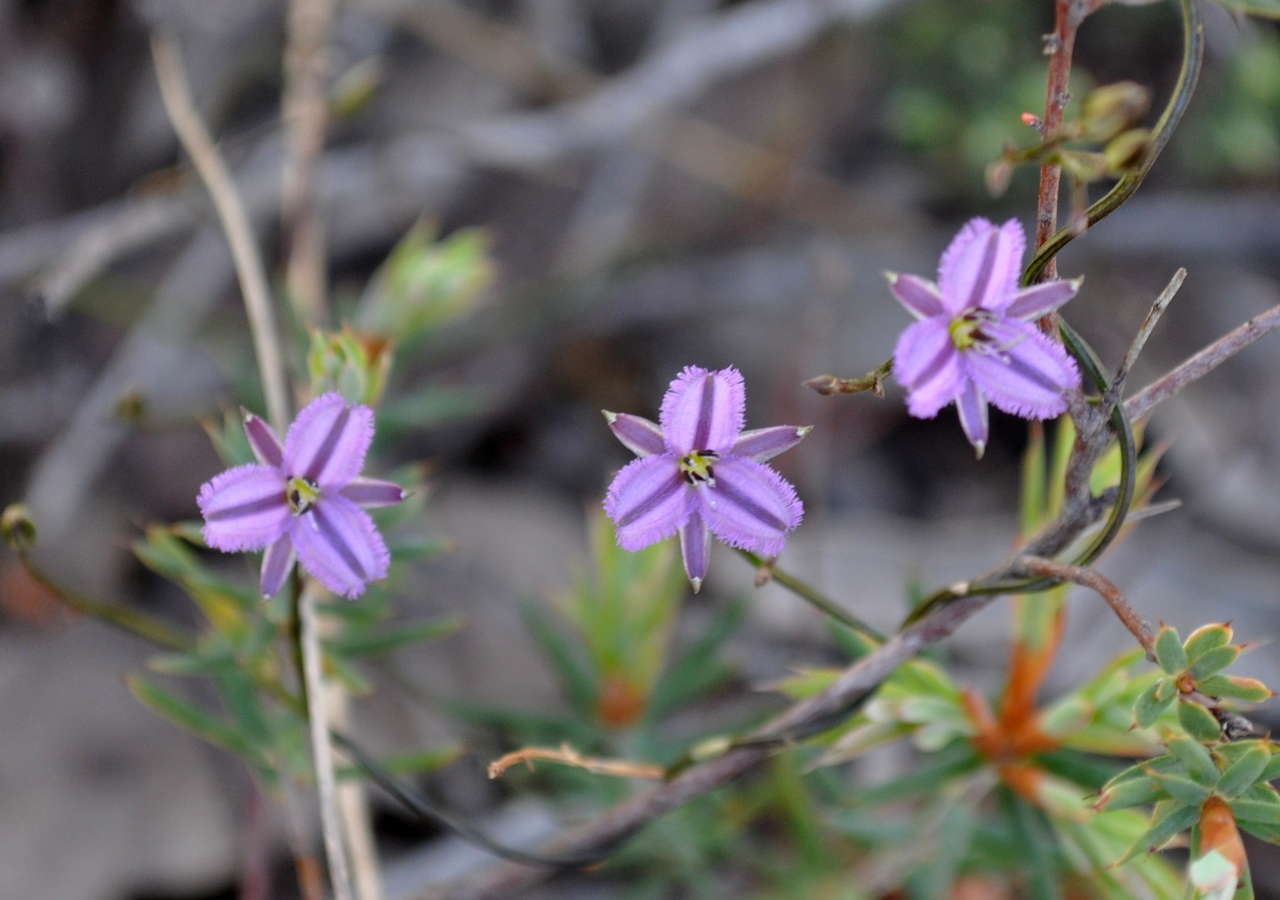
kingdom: Plantae
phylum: Tracheophyta
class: Liliopsida
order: Asparagales
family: Asparagaceae
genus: Thysanotus
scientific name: Thysanotus patersonii
